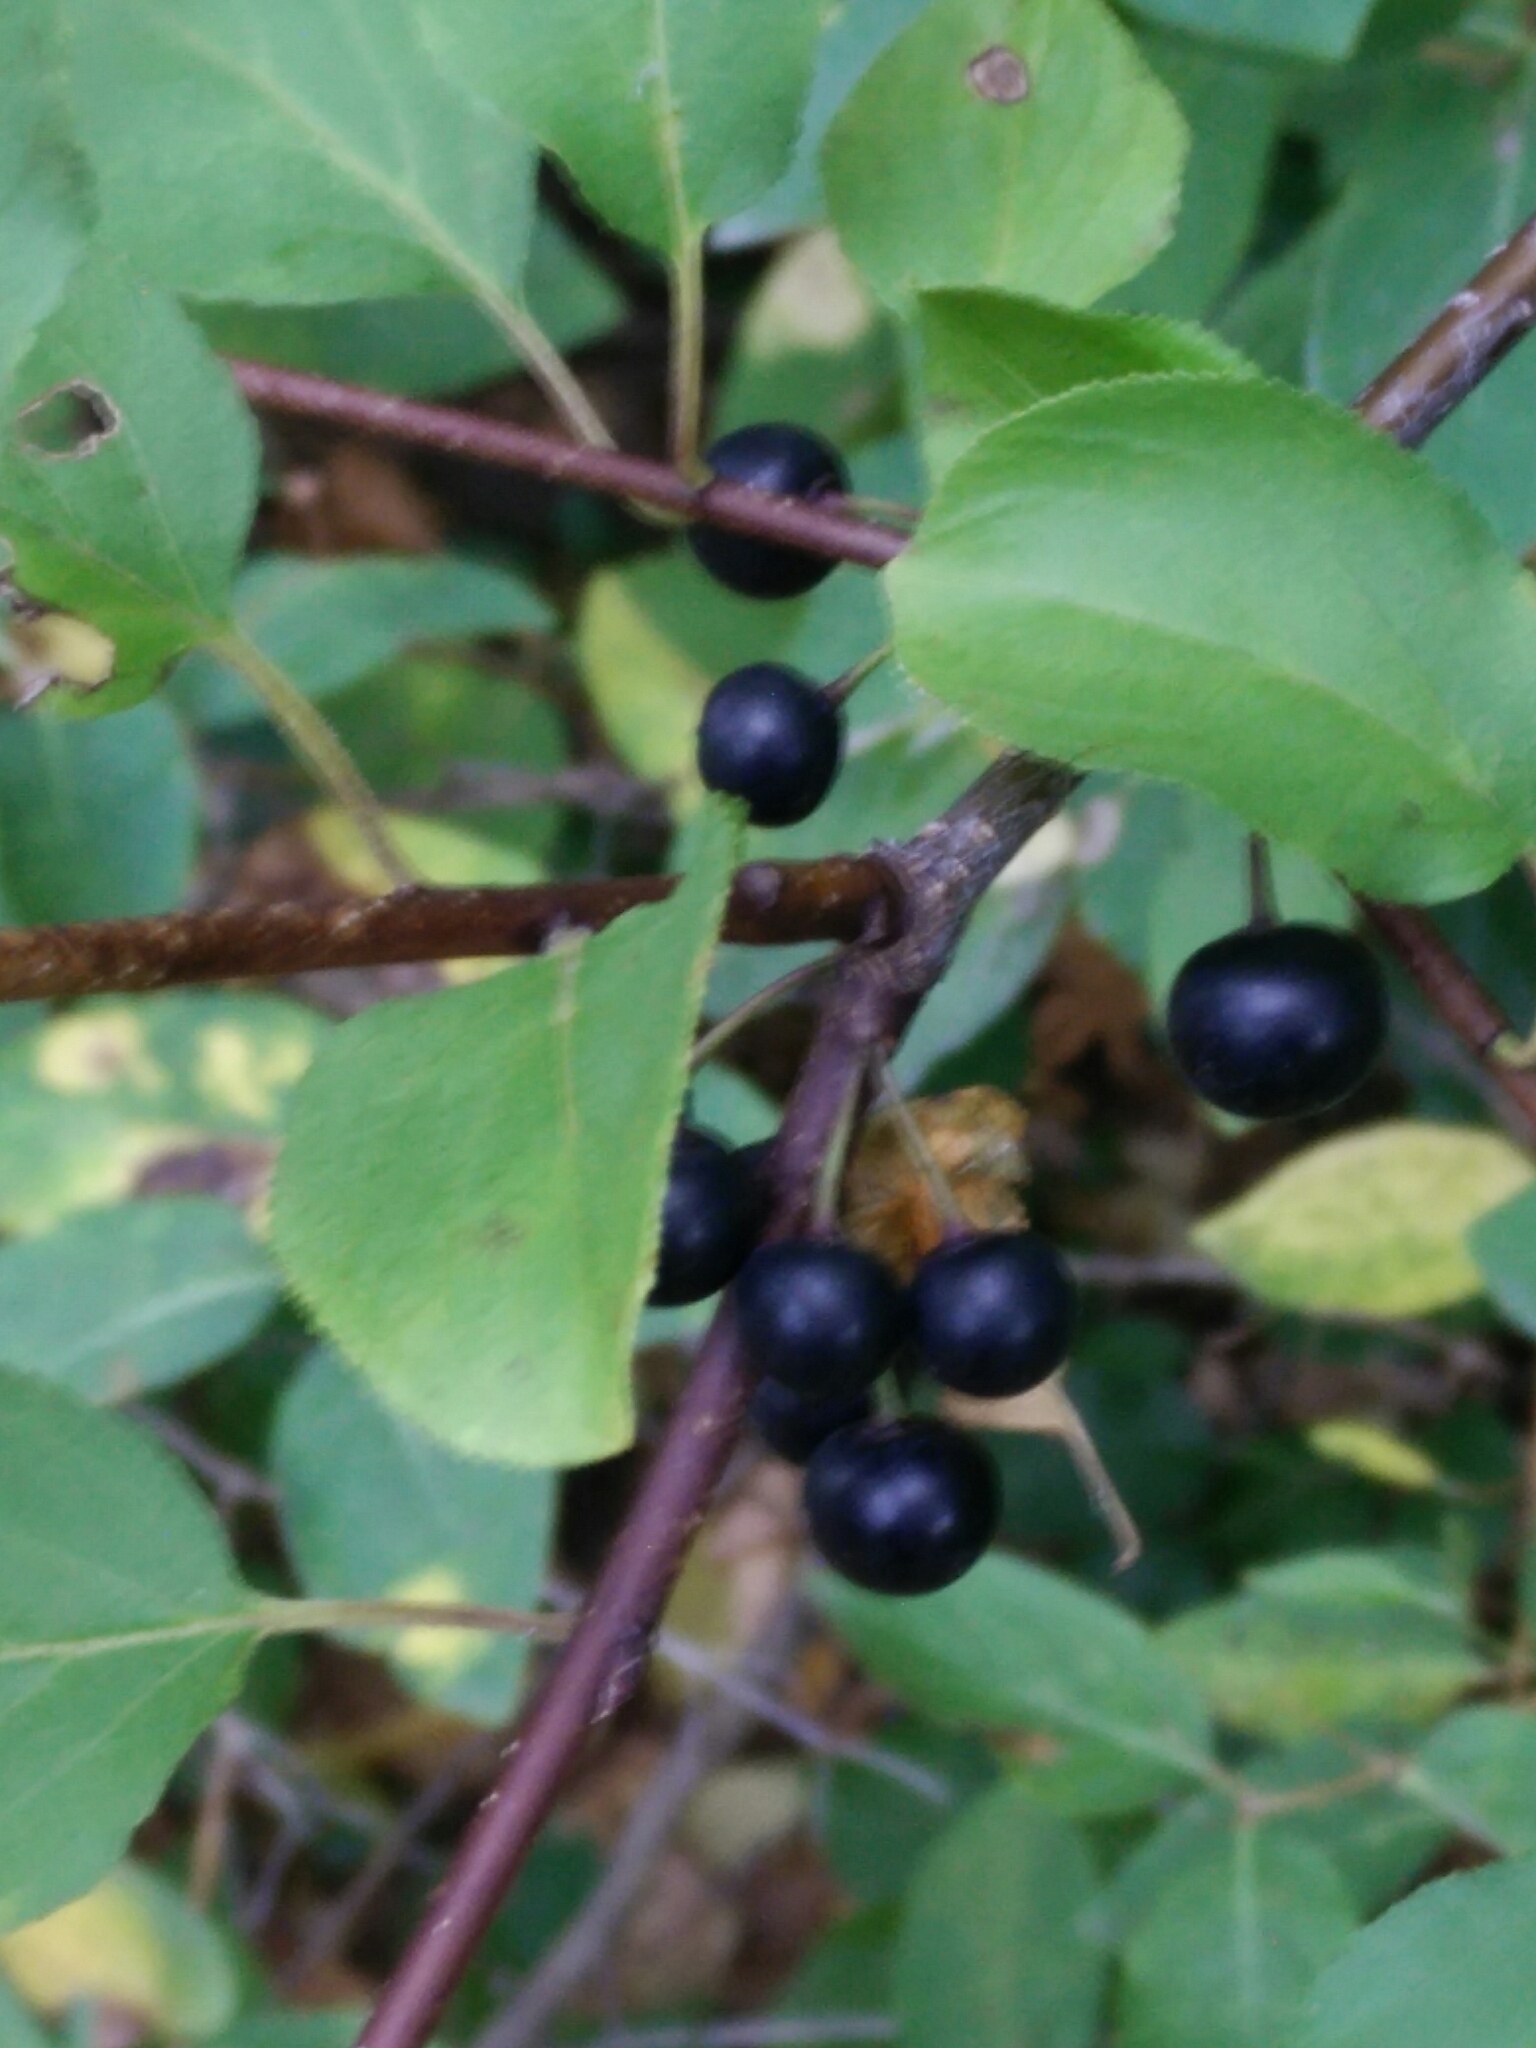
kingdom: Plantae
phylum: Tracheophyta
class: Magnoliopsida
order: Rosales
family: Rhamnaceae
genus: Rhamnus
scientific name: Rhamnus cathartica
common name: Common buckthorn
